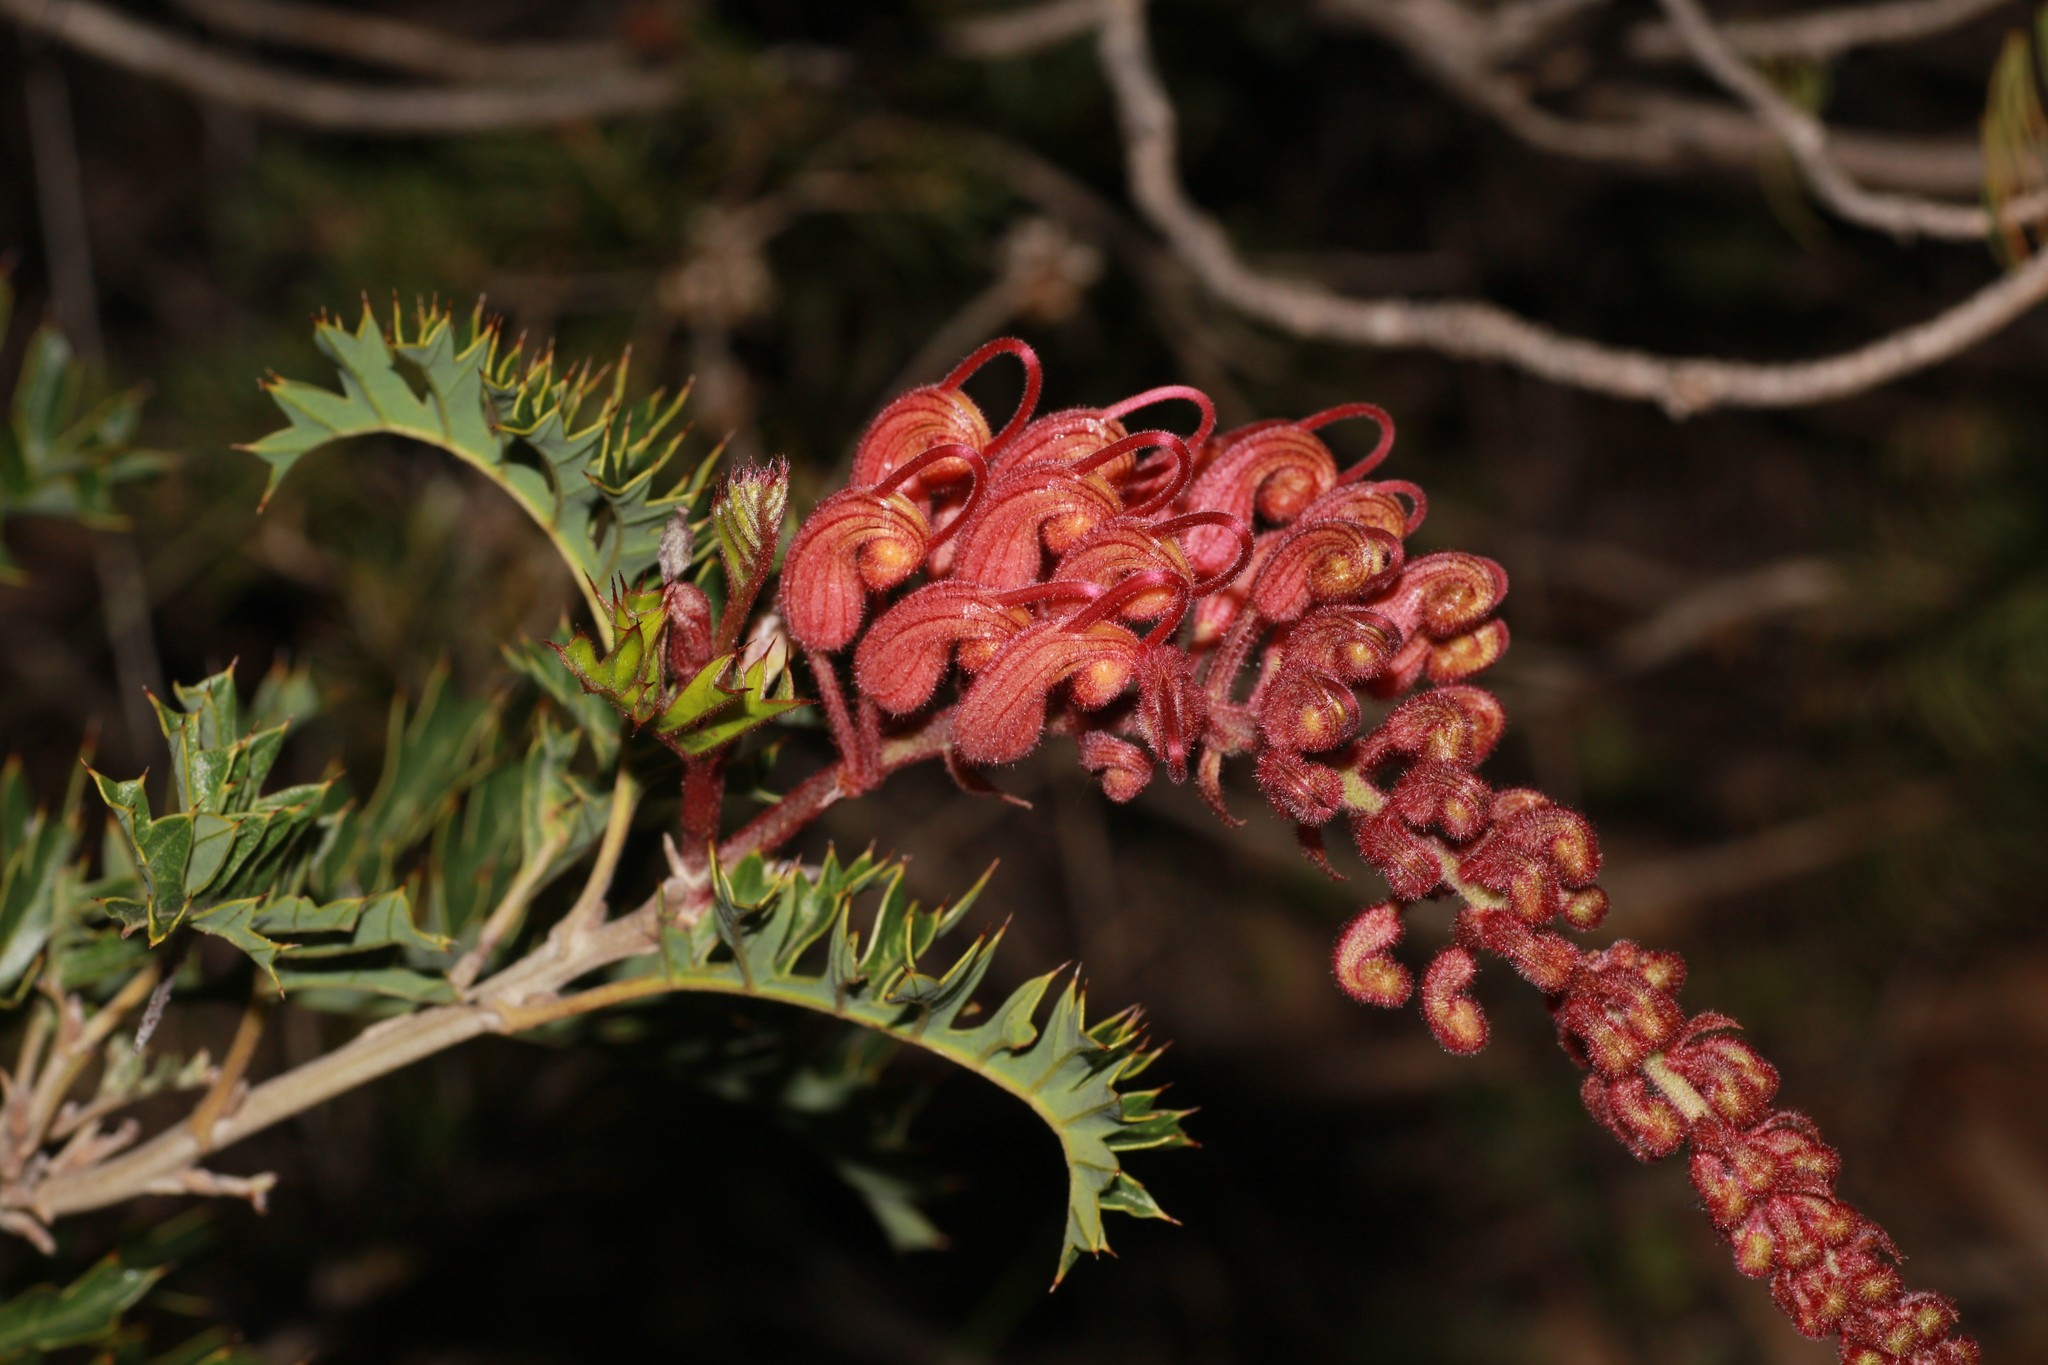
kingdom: Plantae
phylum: Tracheophyta
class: Magnoliopsida
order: Proteales
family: Proteaceae
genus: Grevillea
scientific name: Grevillea bipinnatifida
